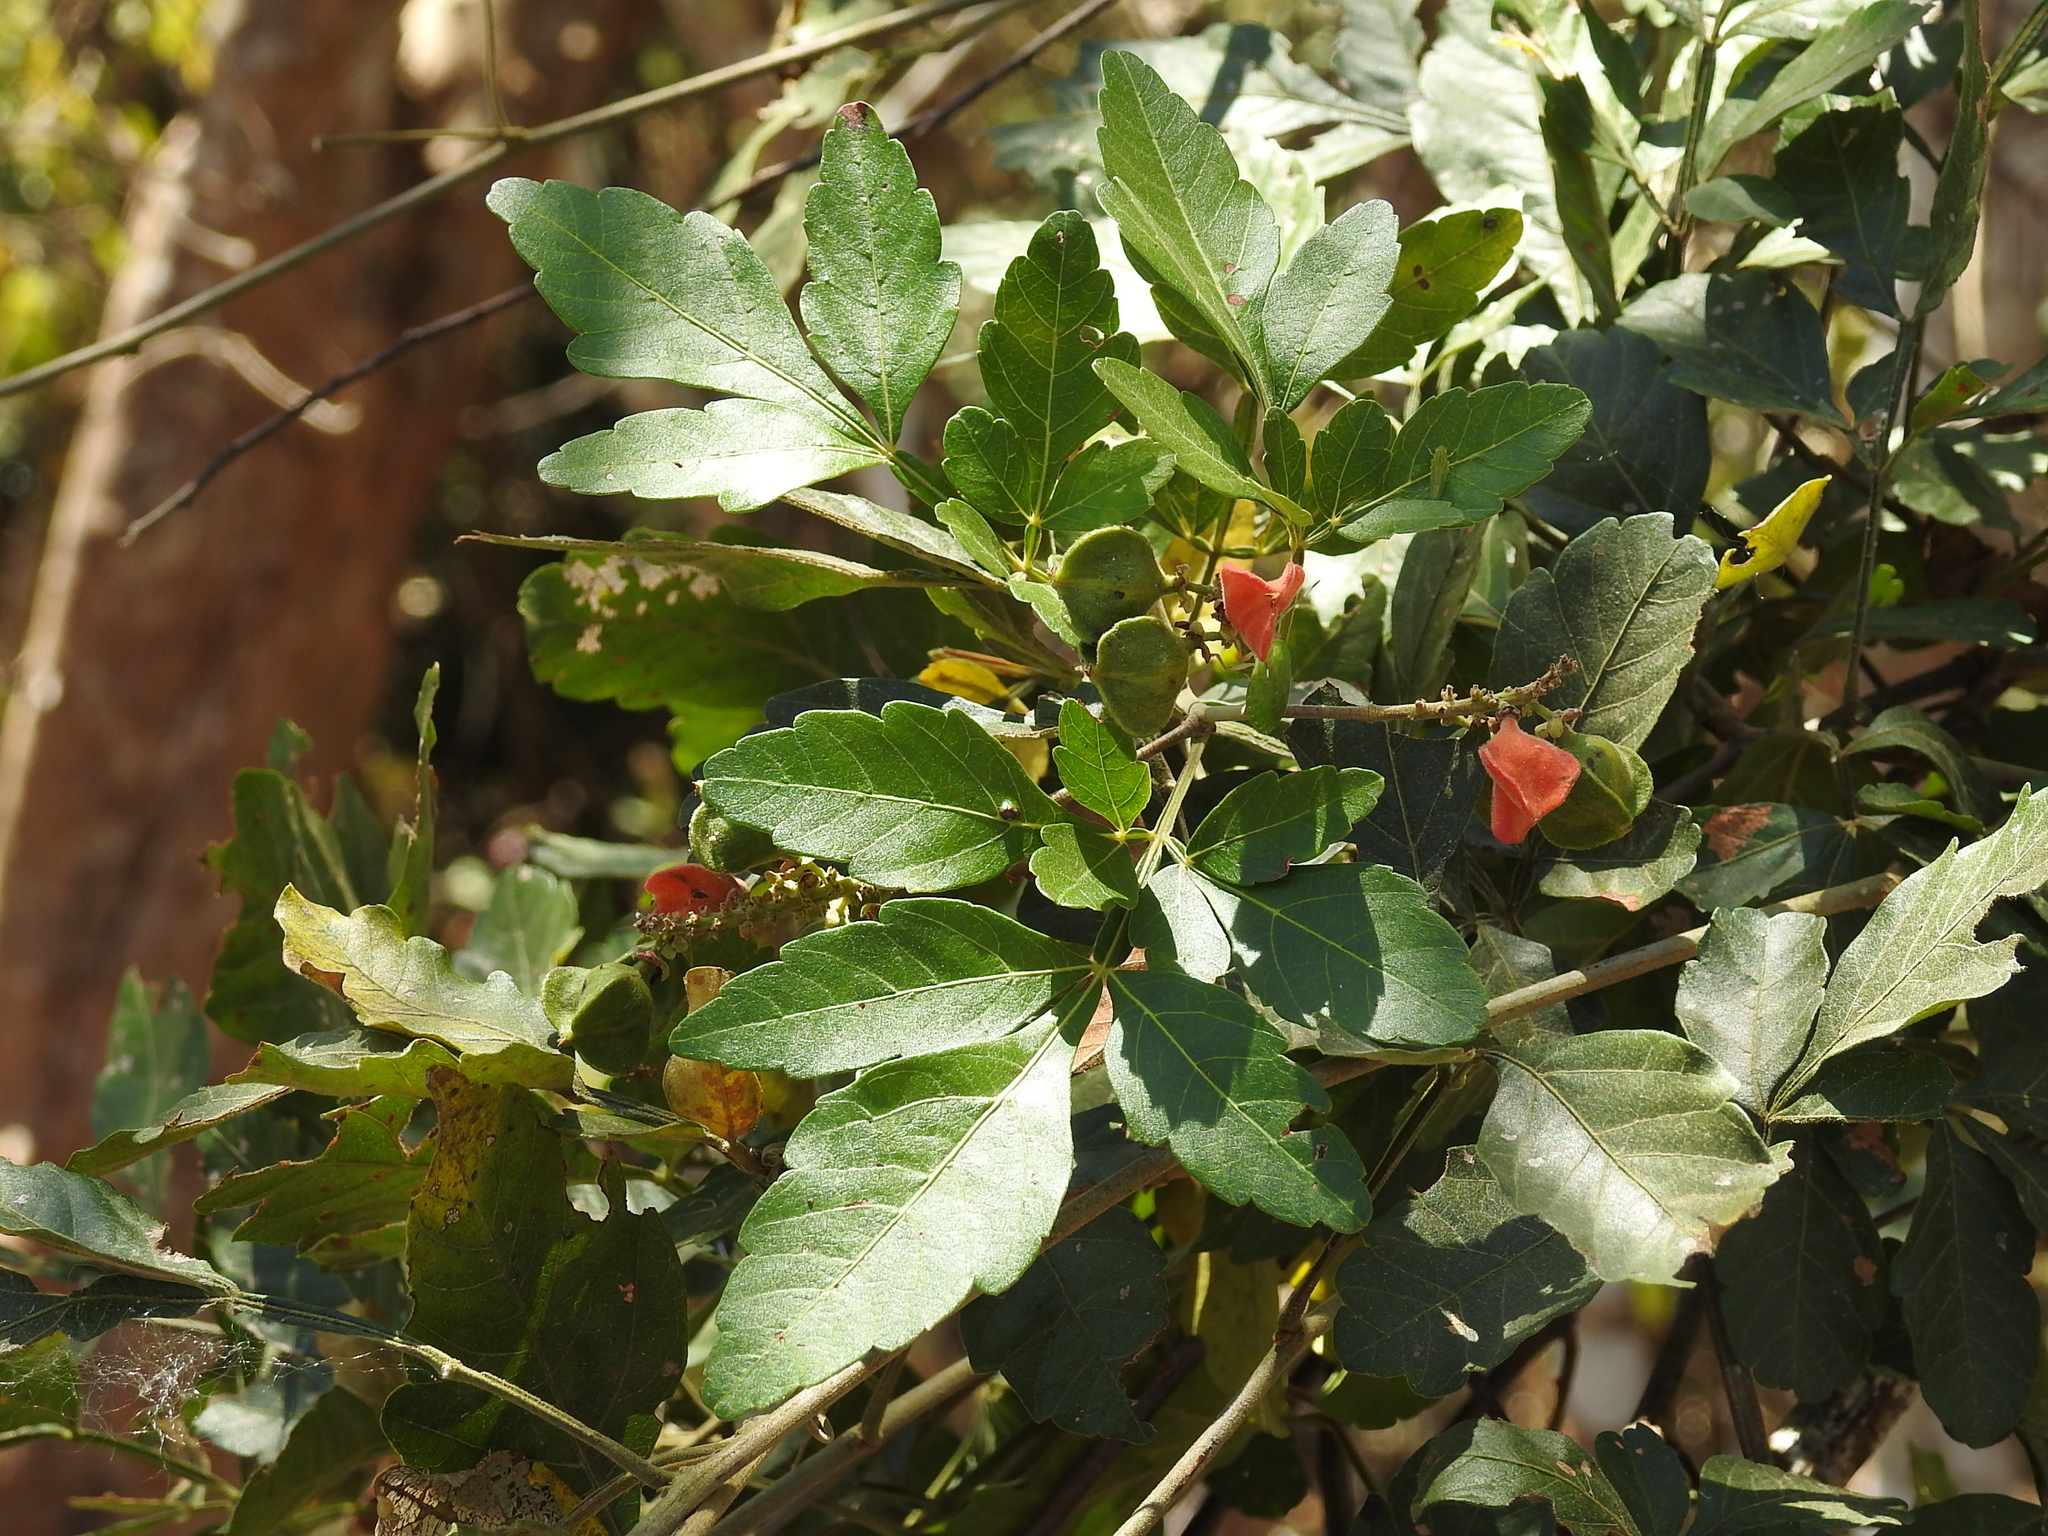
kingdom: Plantae
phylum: Tracheophyta
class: Magnoliopsida
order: Sapindales
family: Sapindaceae
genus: Paullinia
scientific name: Paullinia fuscescens
